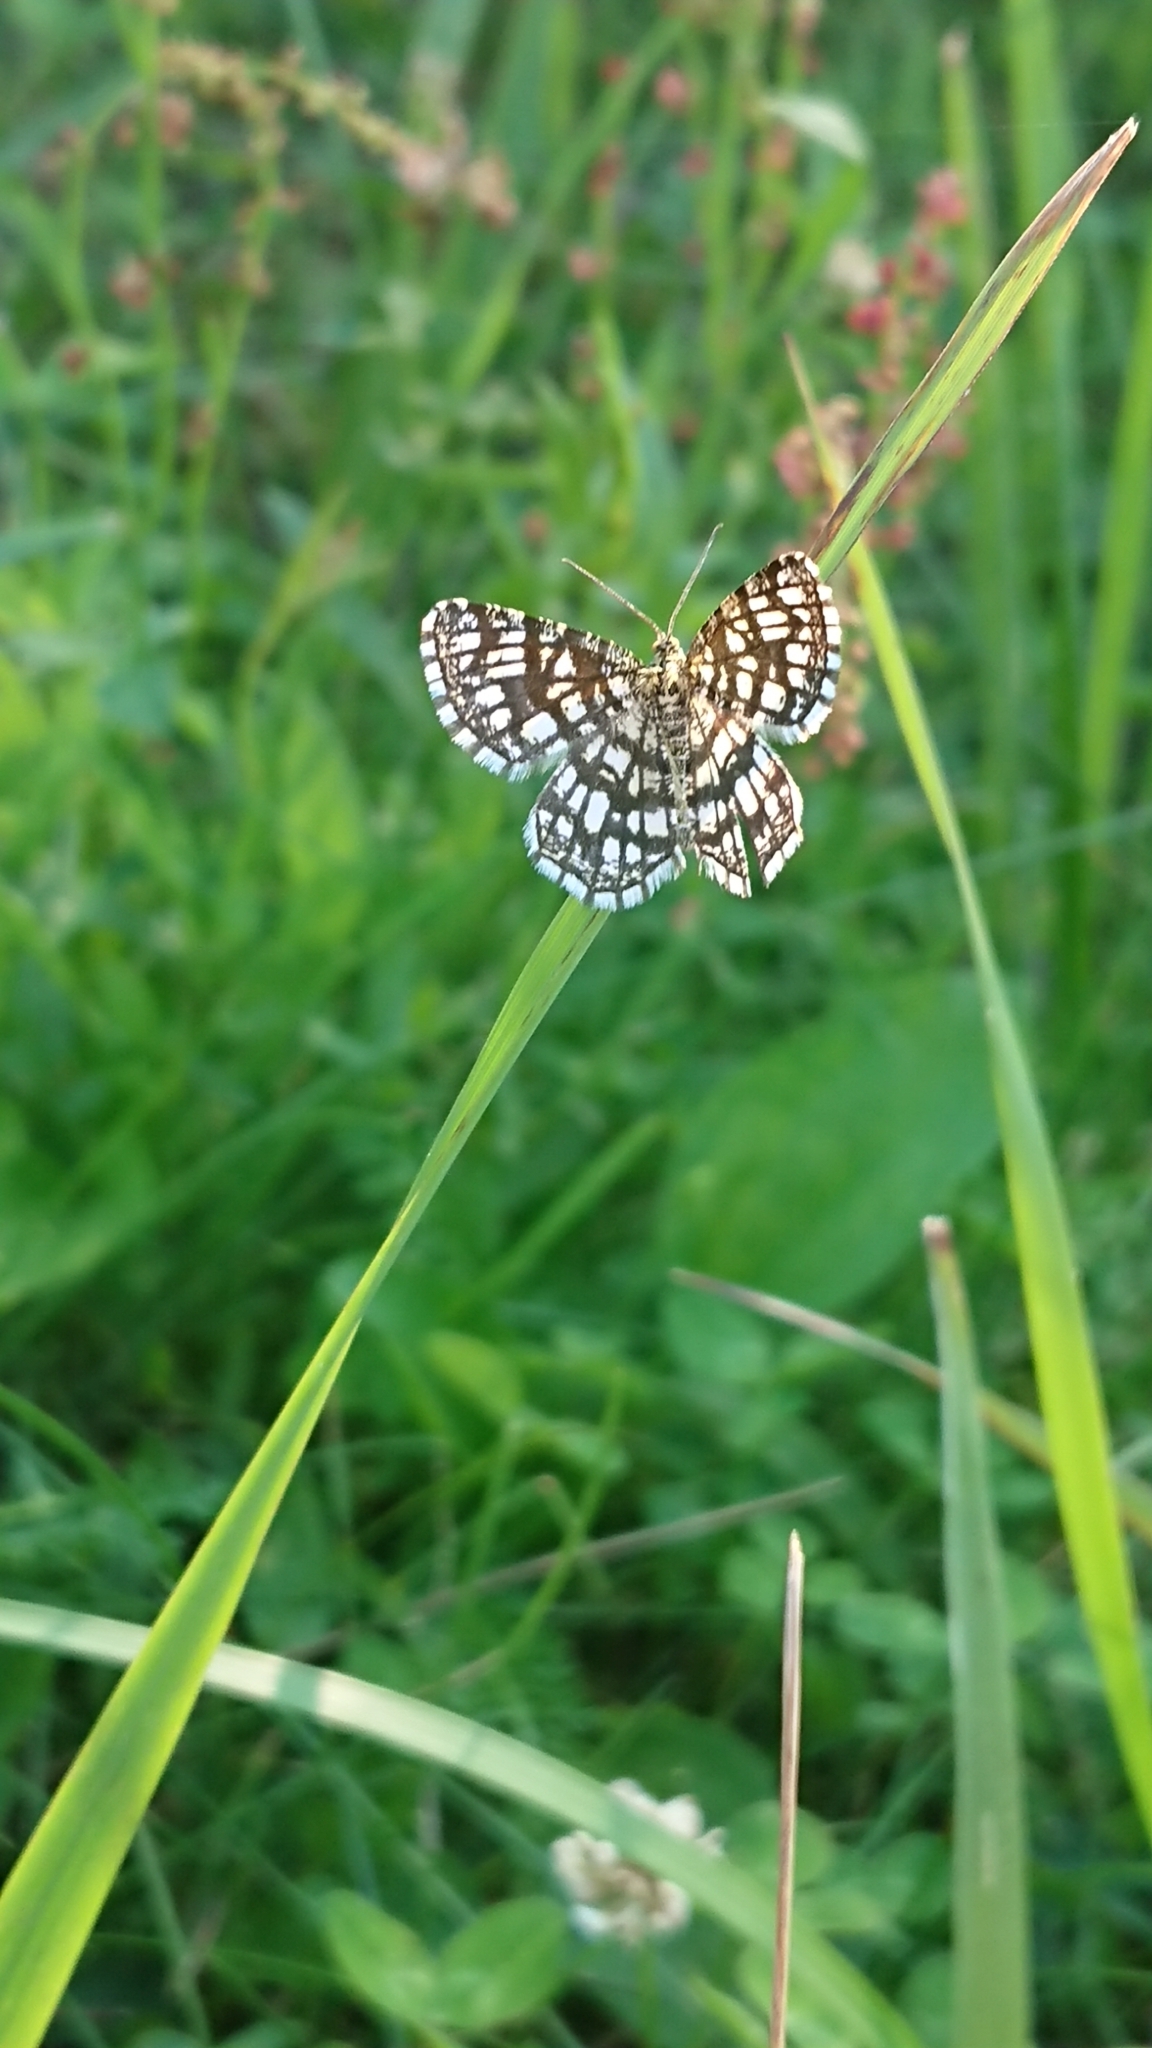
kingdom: Animalia
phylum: Arthropoda
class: Insecta
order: Lepidoptera
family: Geometridae
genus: Chiasmia
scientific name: Chiasmia clathrata
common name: Latticed heath
